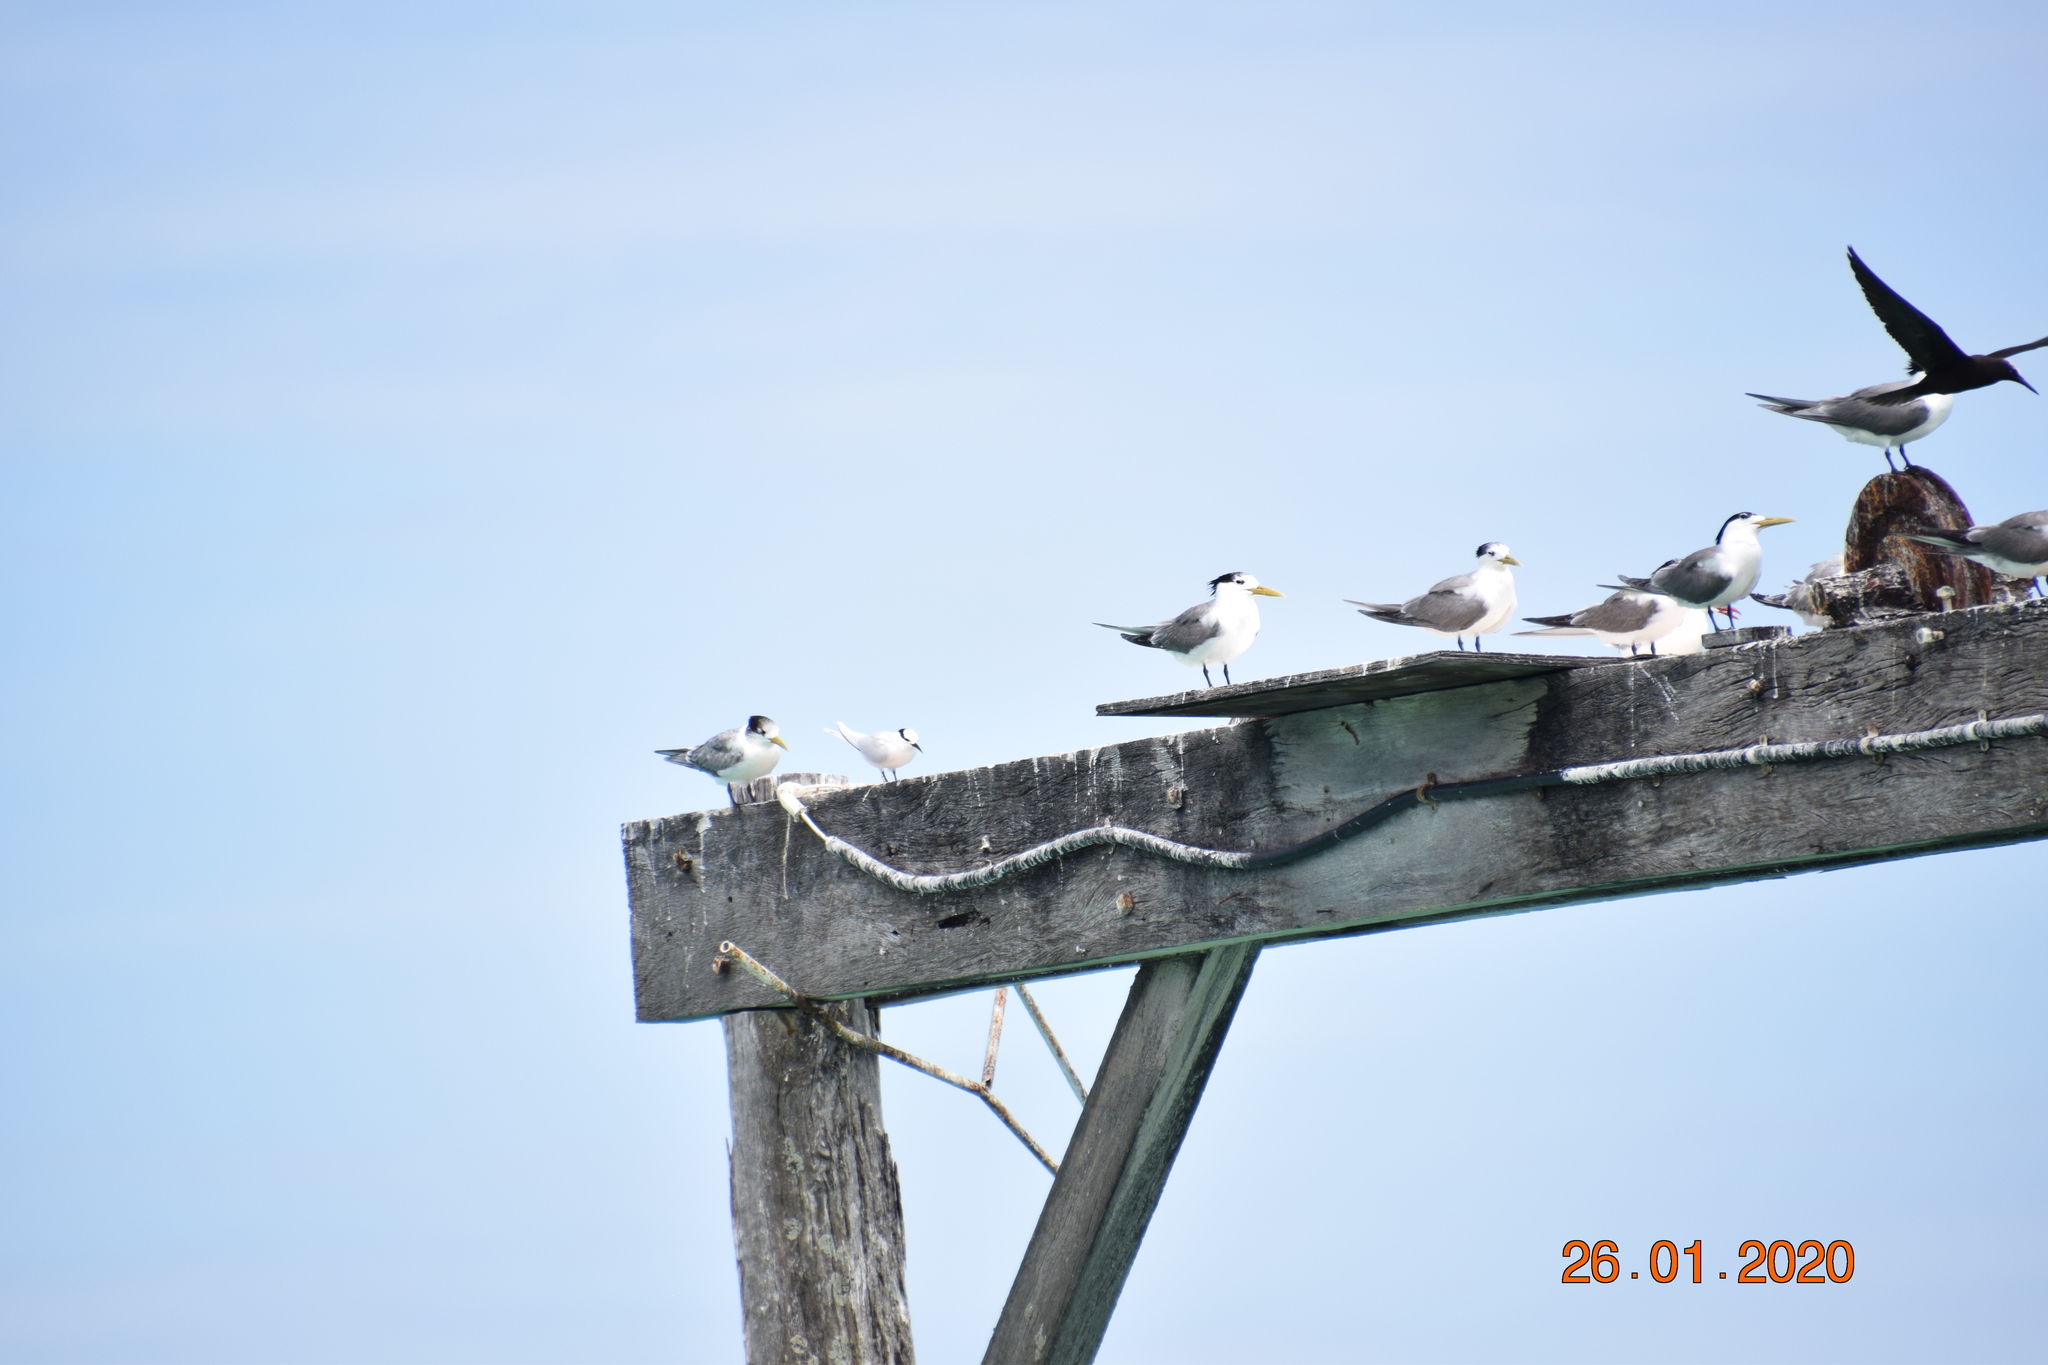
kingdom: Animalia
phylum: Chordata
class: Aves
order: Charadriiformes
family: Laridae
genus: Thalasseus
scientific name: Thalasseus bergii
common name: Greater crested tern
